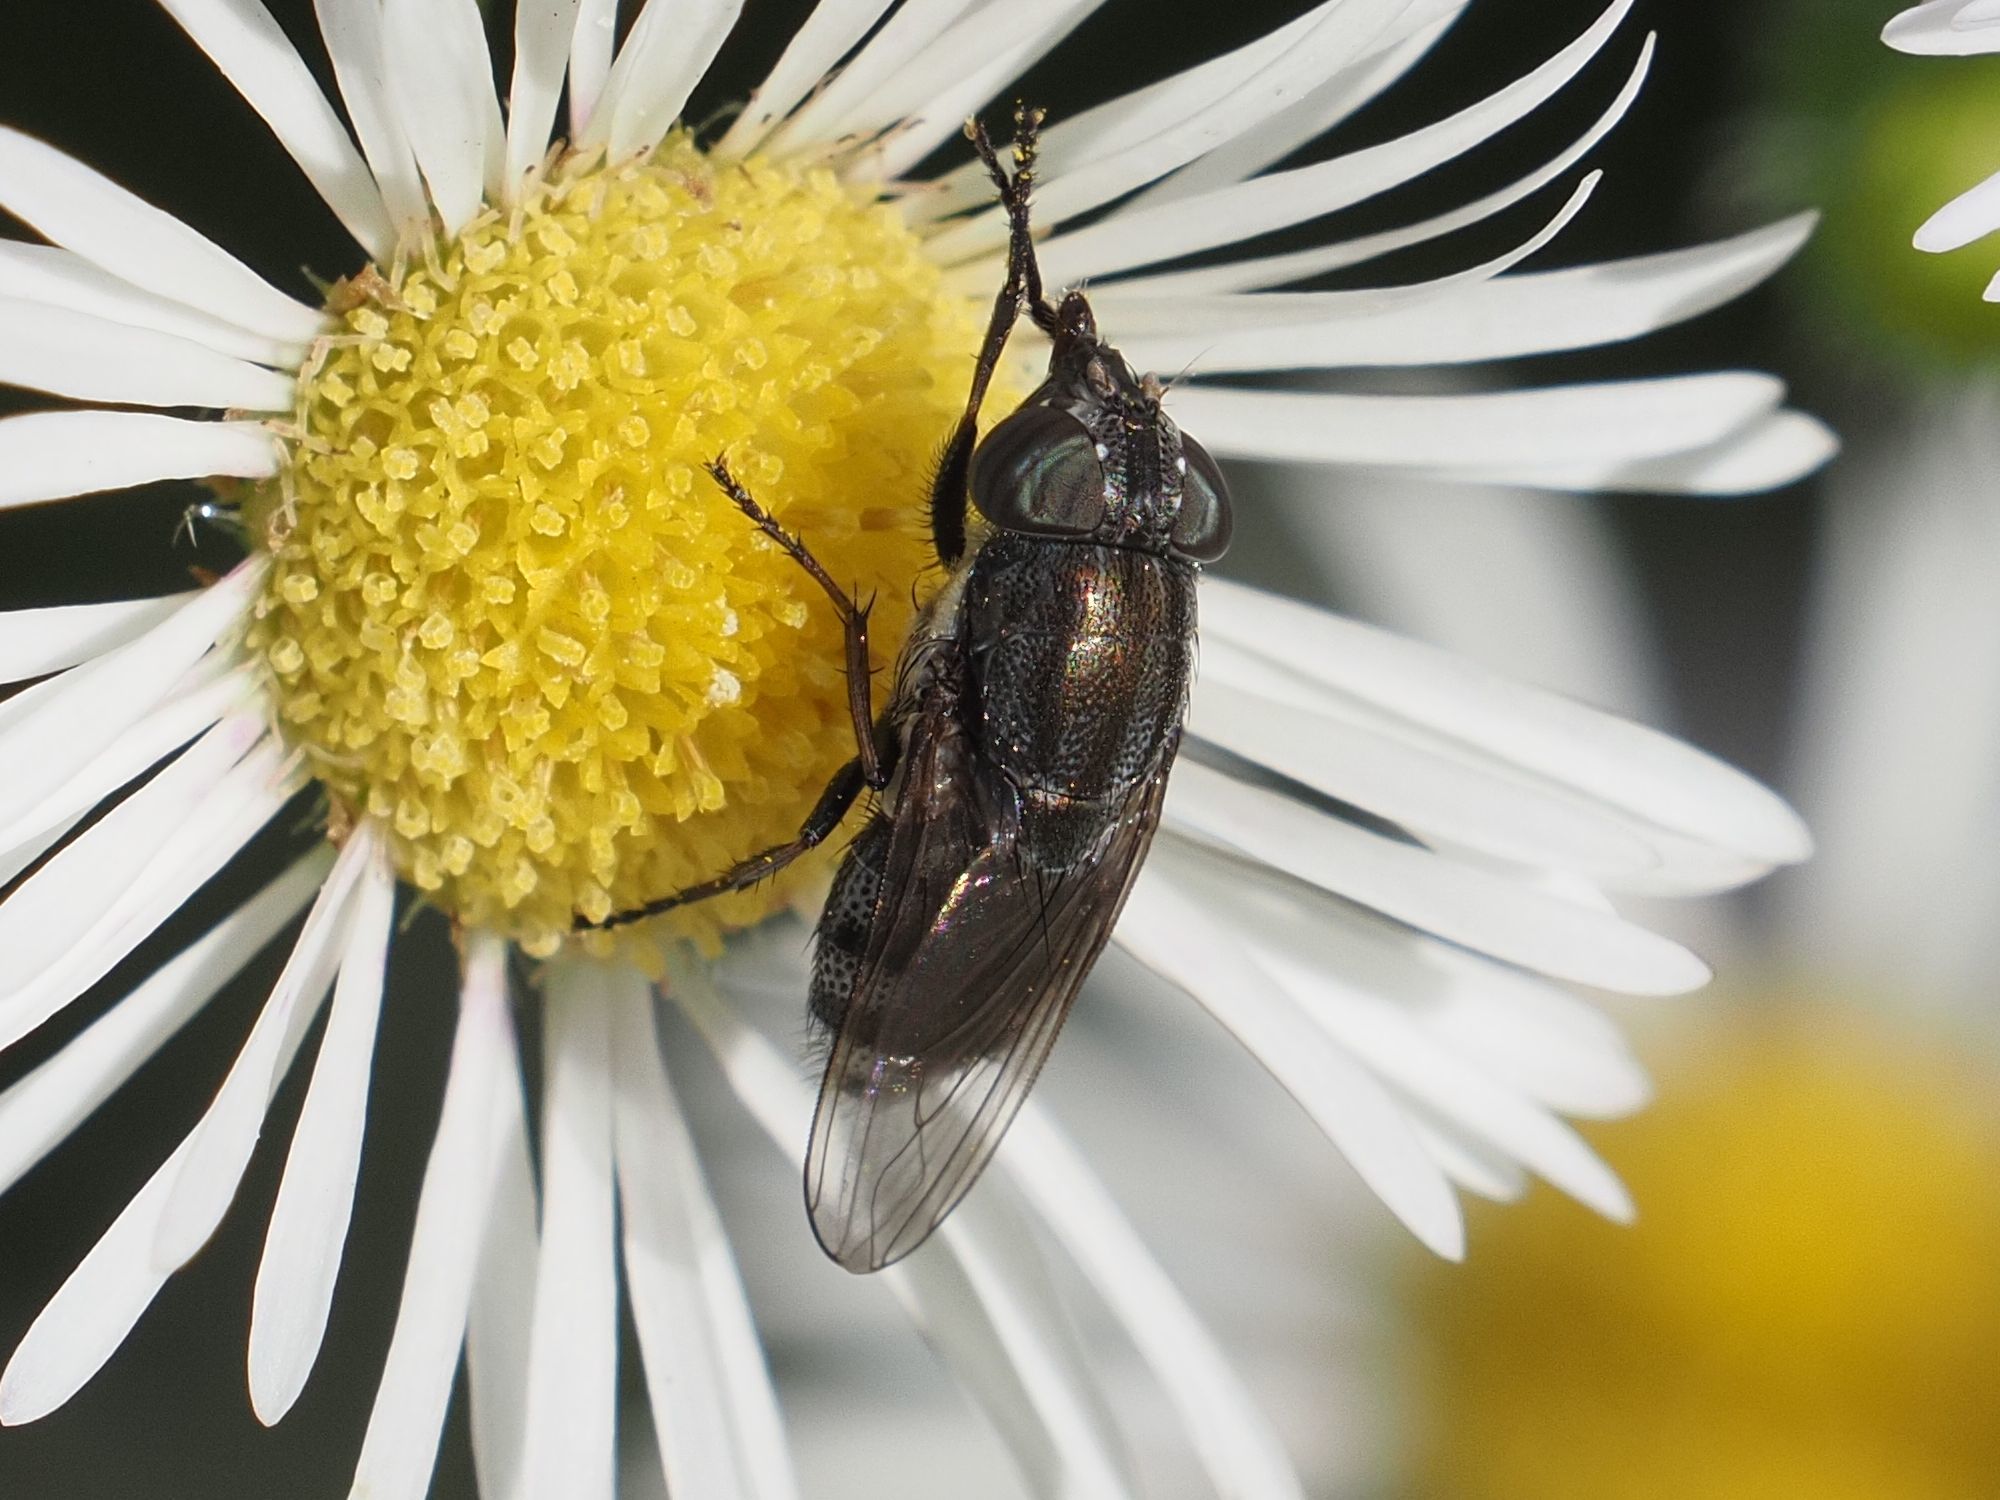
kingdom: Animalia
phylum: Arthropoda
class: Insecta
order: Diptera
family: Calliphoridae
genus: Stomorhina
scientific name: Stomorhina lunata
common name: Locust blowfly
